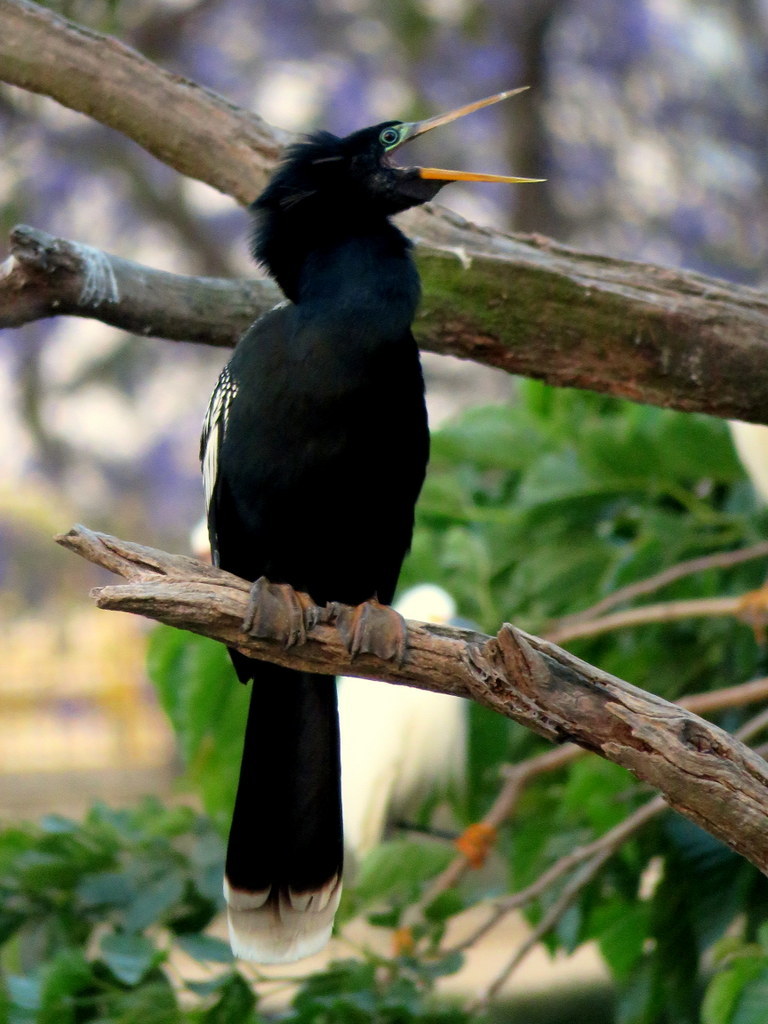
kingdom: Animalia
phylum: Chordata
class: Aves
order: Suliformes
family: Anhingidae
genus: Anhinga
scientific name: Anhinga anhinga
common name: Anhinga
